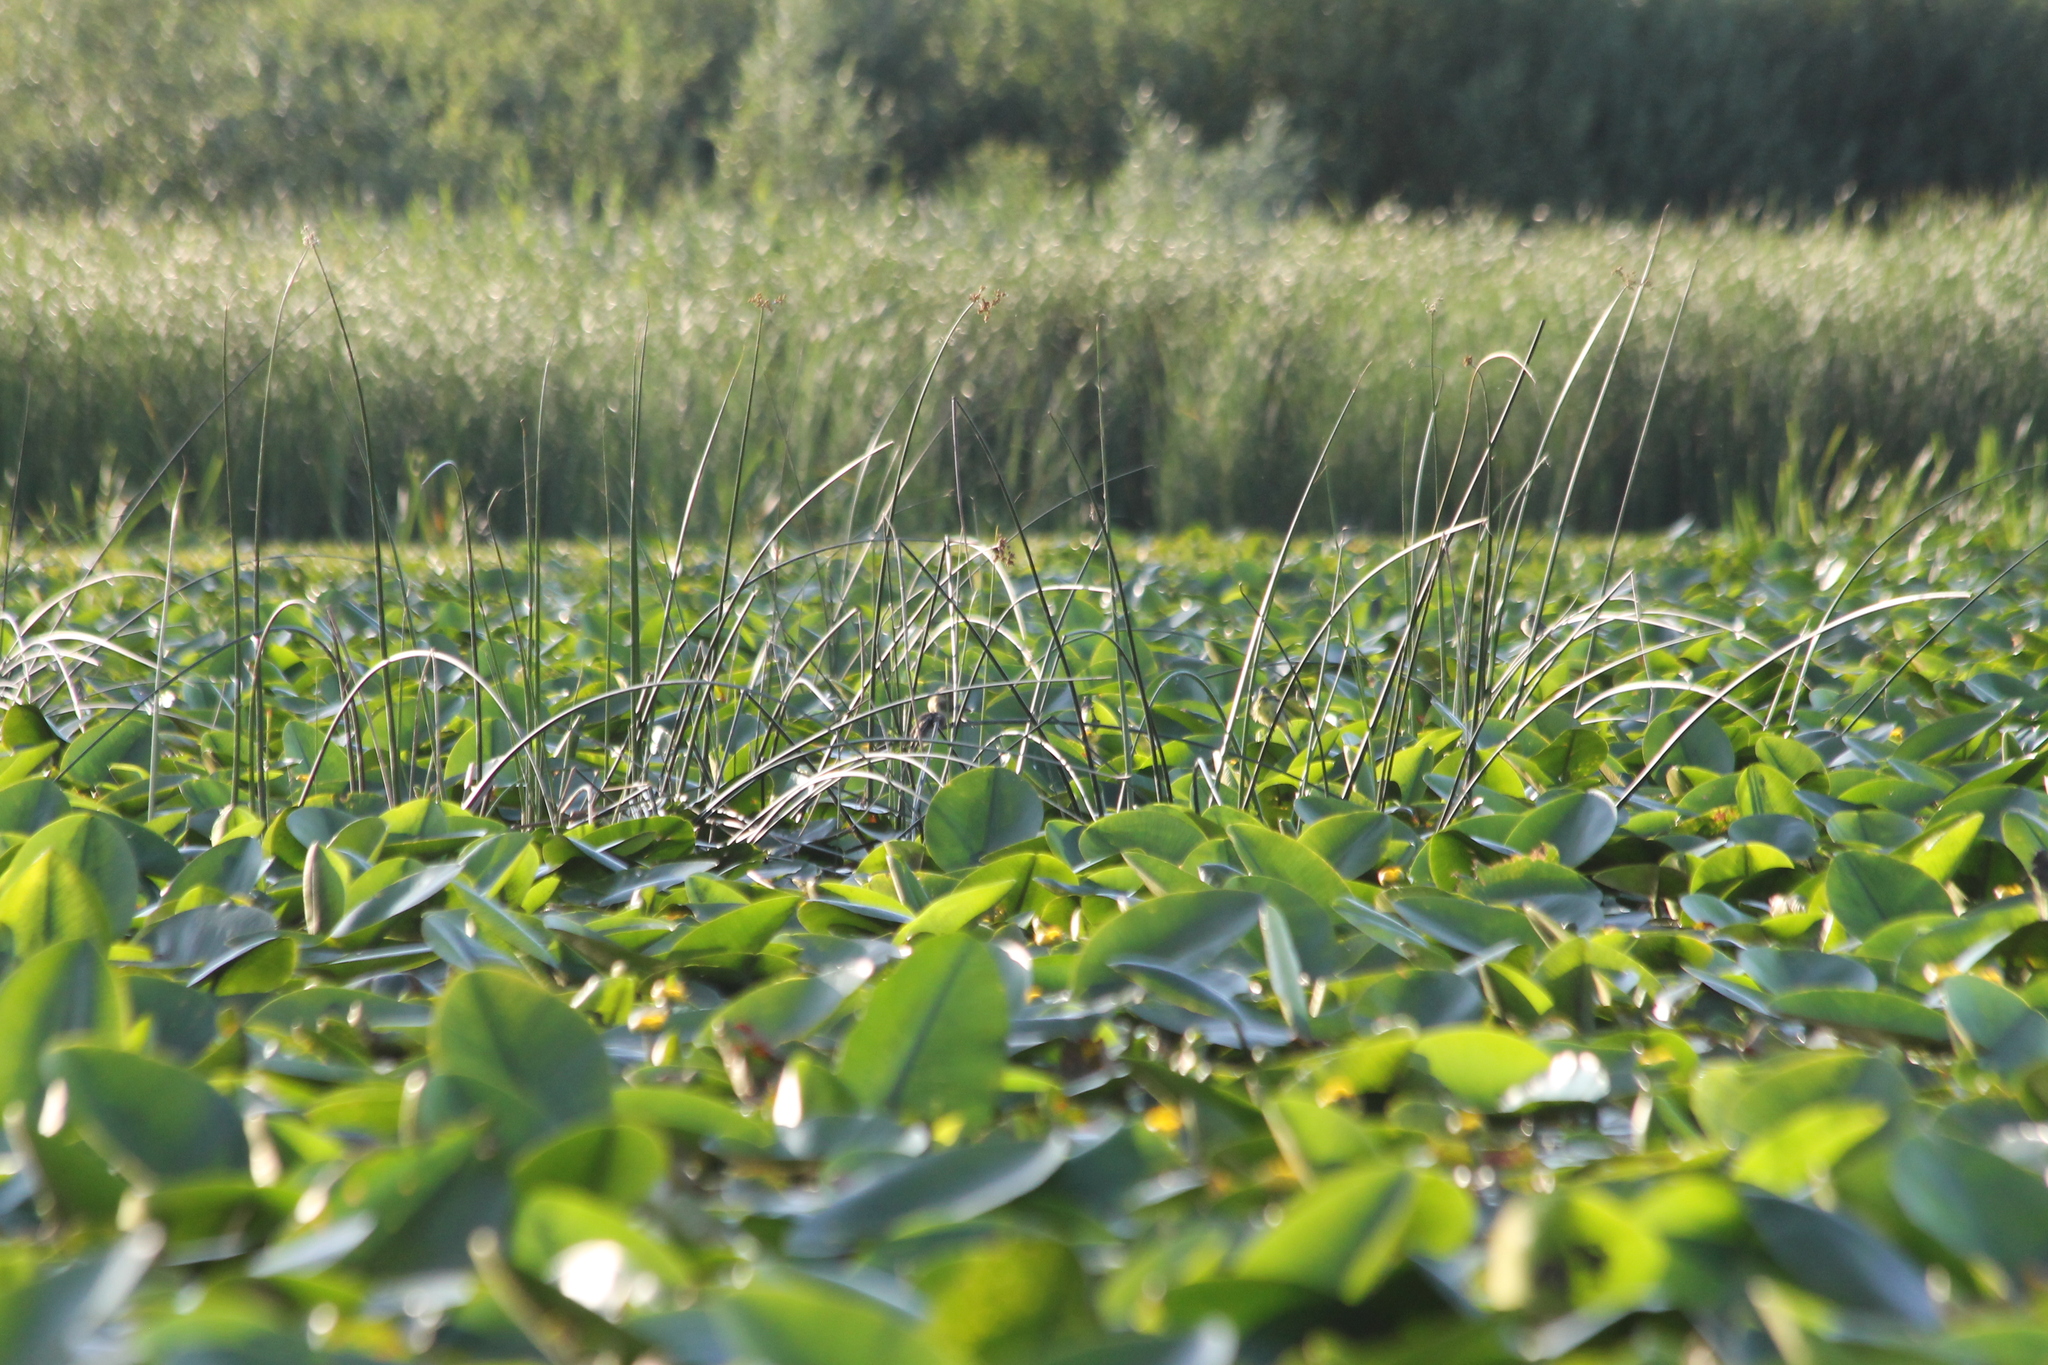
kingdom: Plantae
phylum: Tracheophyta
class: Liliopsida
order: Poales
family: Cyperaceae
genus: Schoenoplectus
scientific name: Schoenoplectus lacustris
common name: Common club-rush
